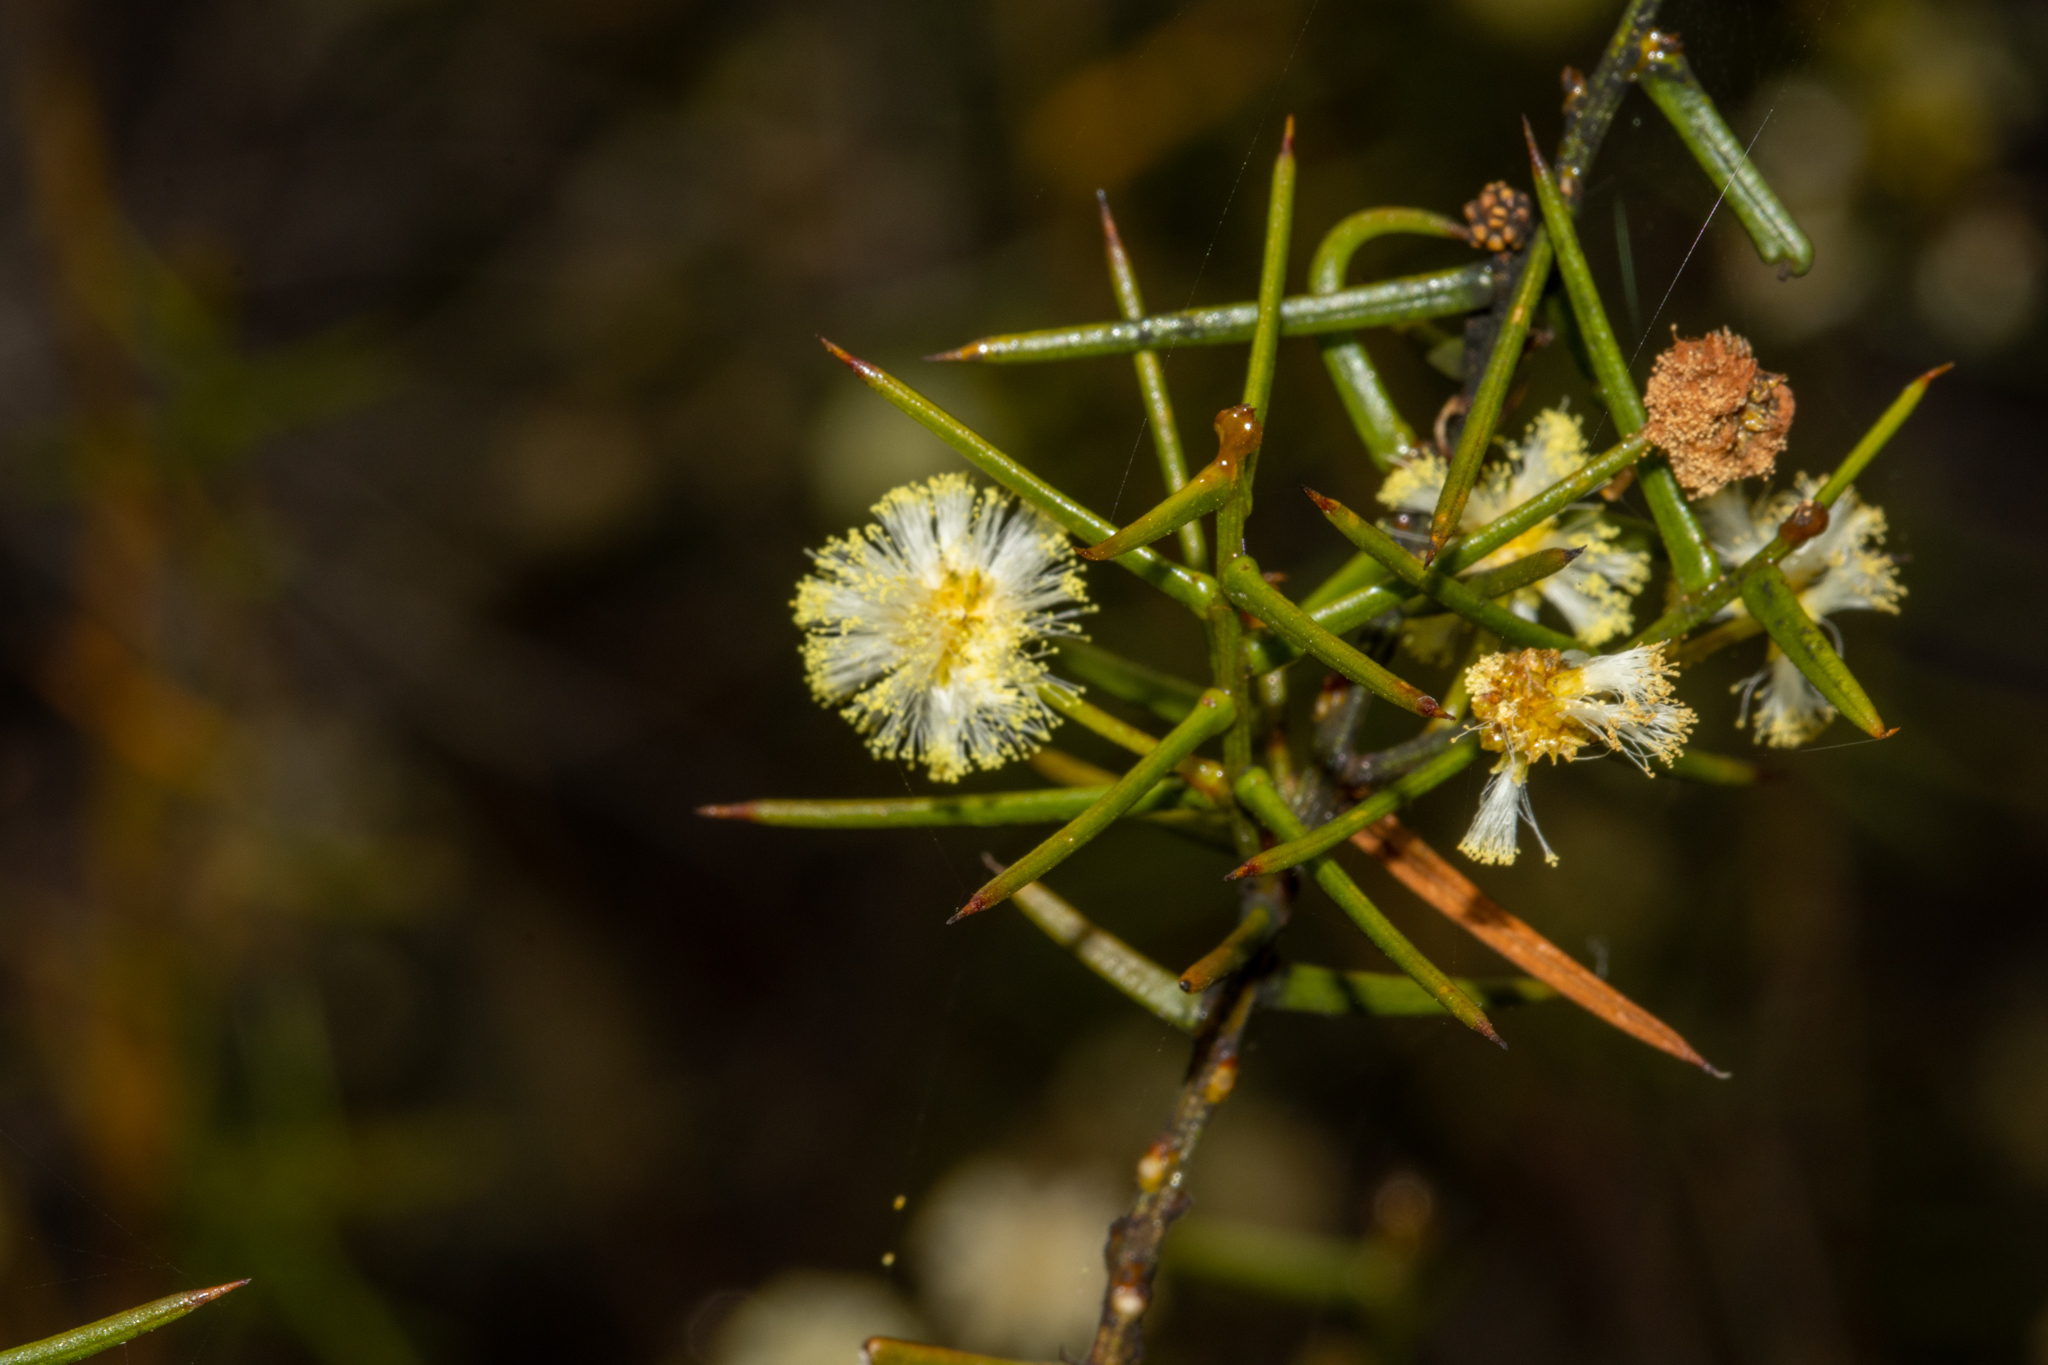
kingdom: Plantae
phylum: Tracheophyta
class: Magnoliopsida
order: Fabales
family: Fabaceae
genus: Acacia
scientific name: Acacia rupicola
